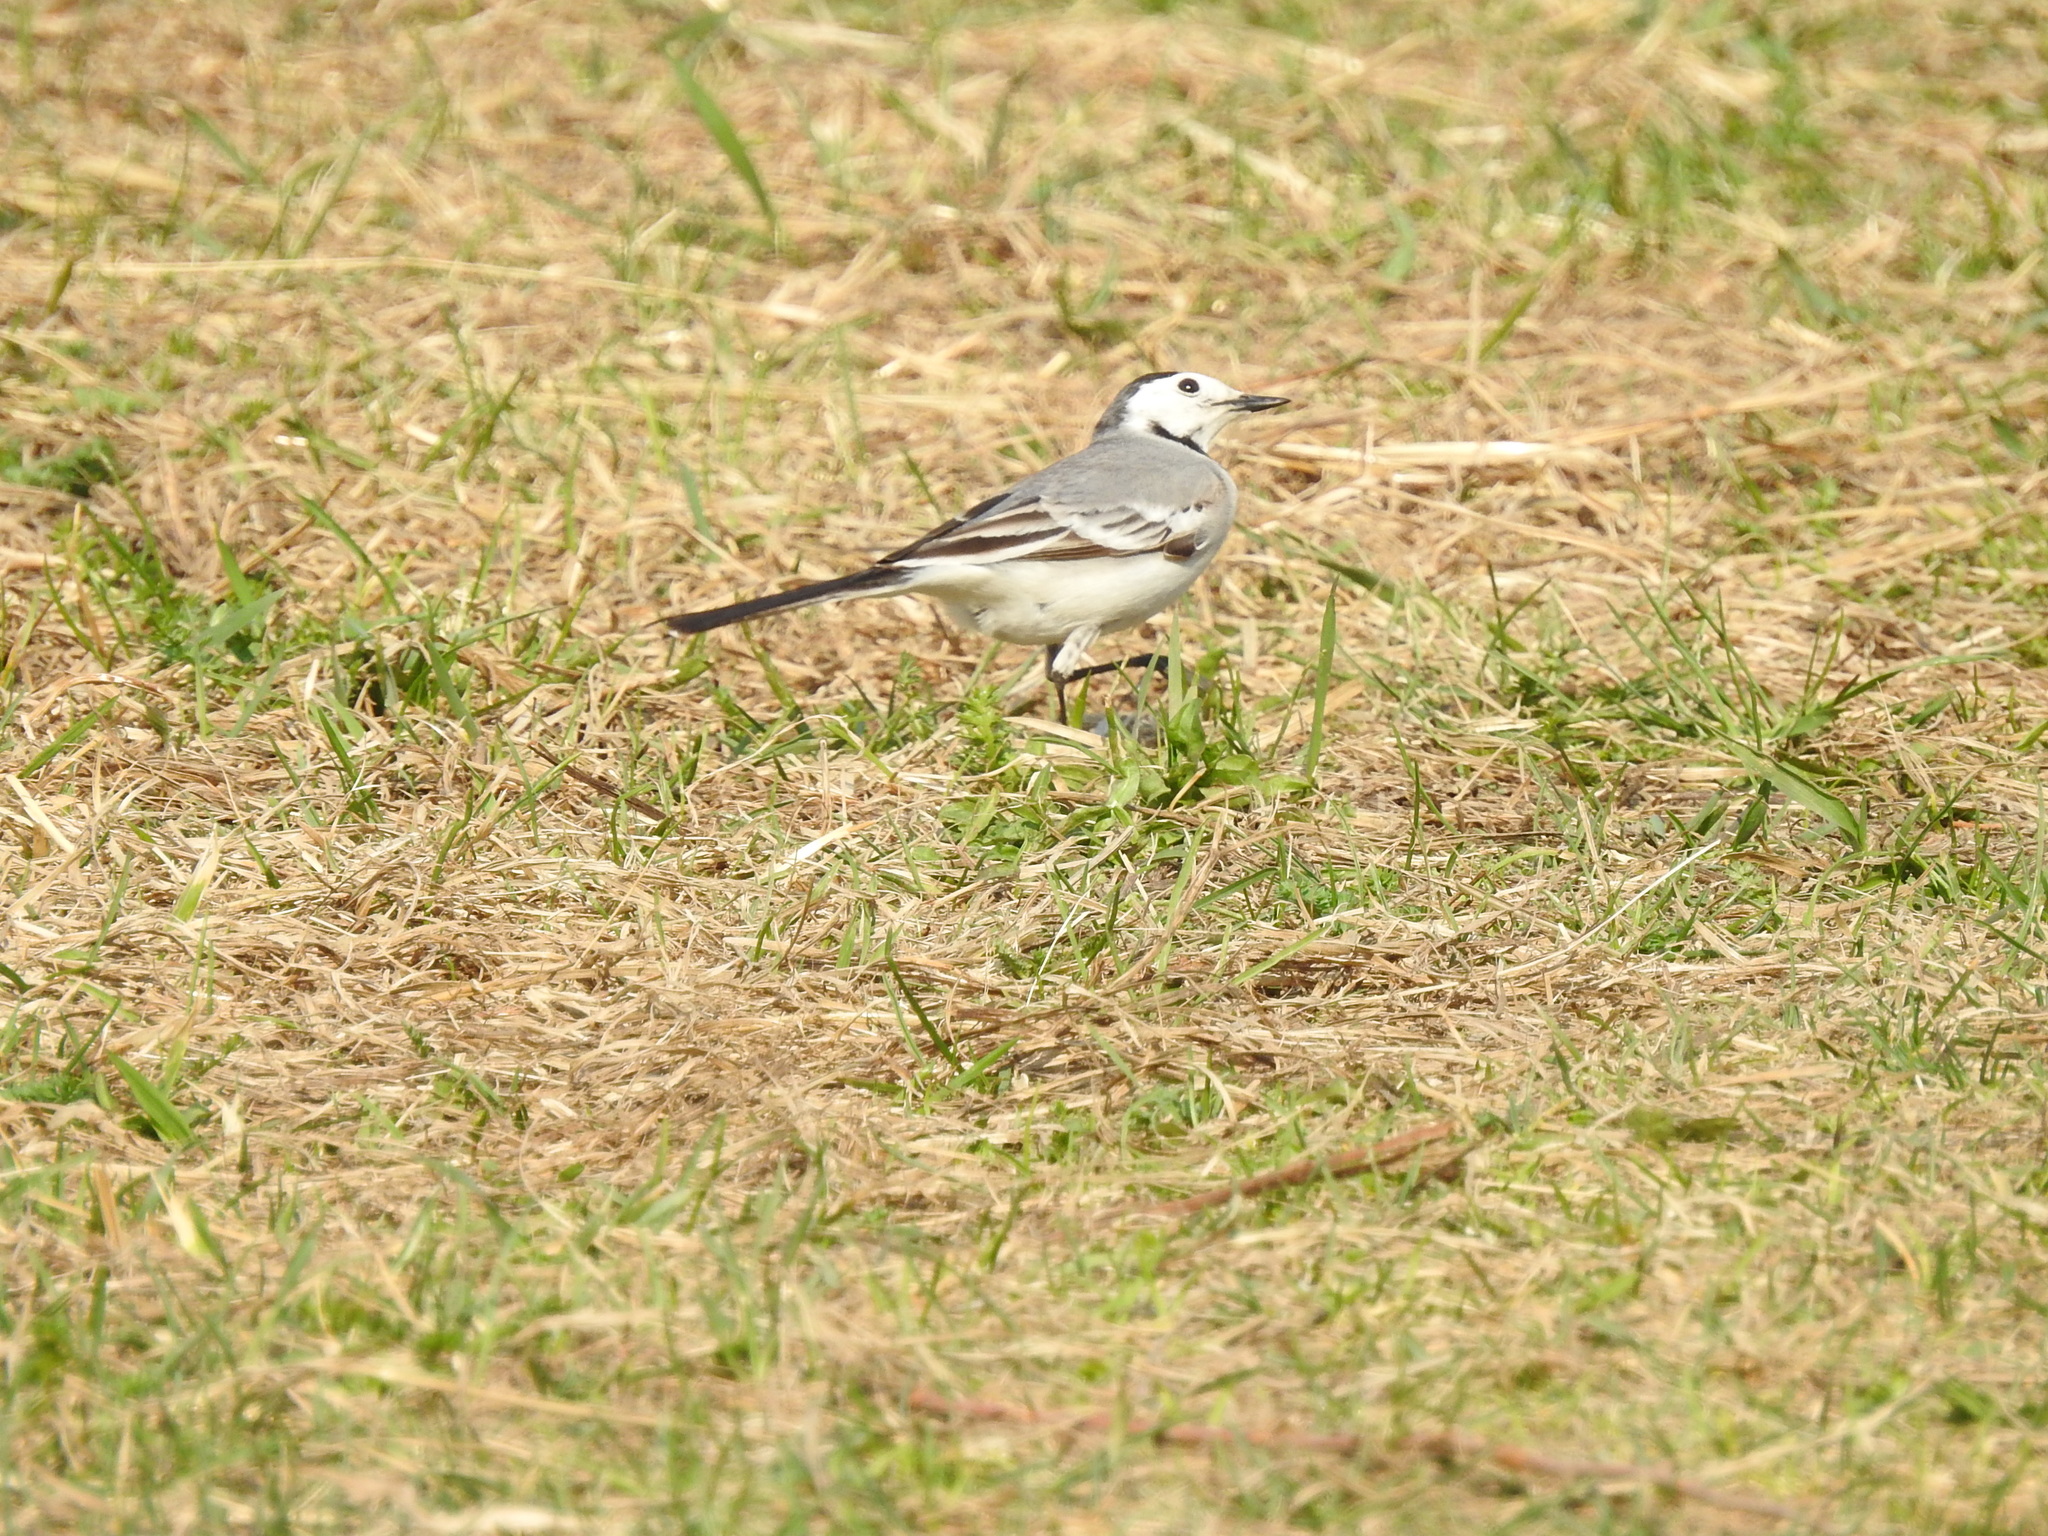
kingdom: Animalia
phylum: Chordata
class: Aves
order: Passeriformes
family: Motacillidae
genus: Motacilla
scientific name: Motacilla alba
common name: White wagtail
